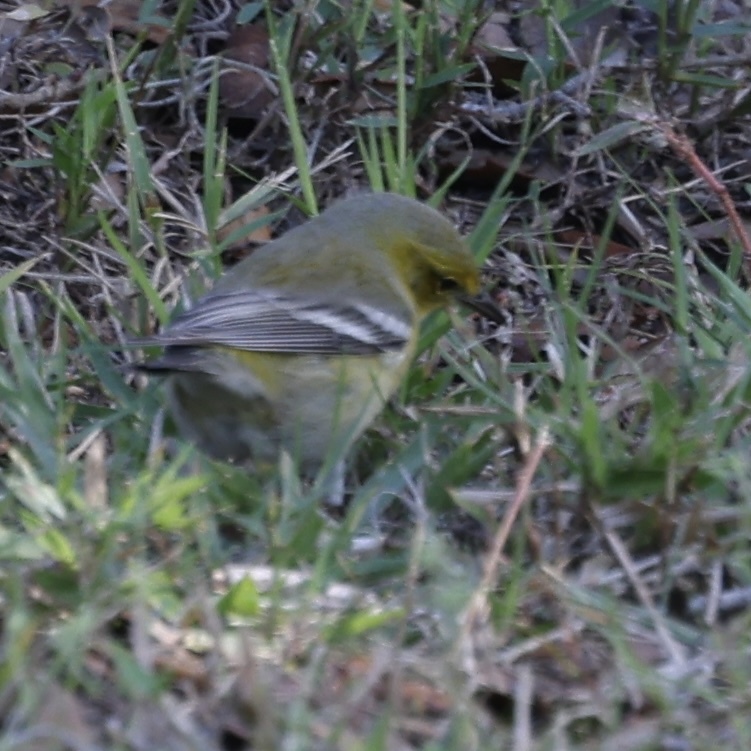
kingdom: Animalia
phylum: Chordata
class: Aves
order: Passeriformes
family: Parulidae
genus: Setophaga
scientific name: Setophaga pinus
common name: Pine warbler
